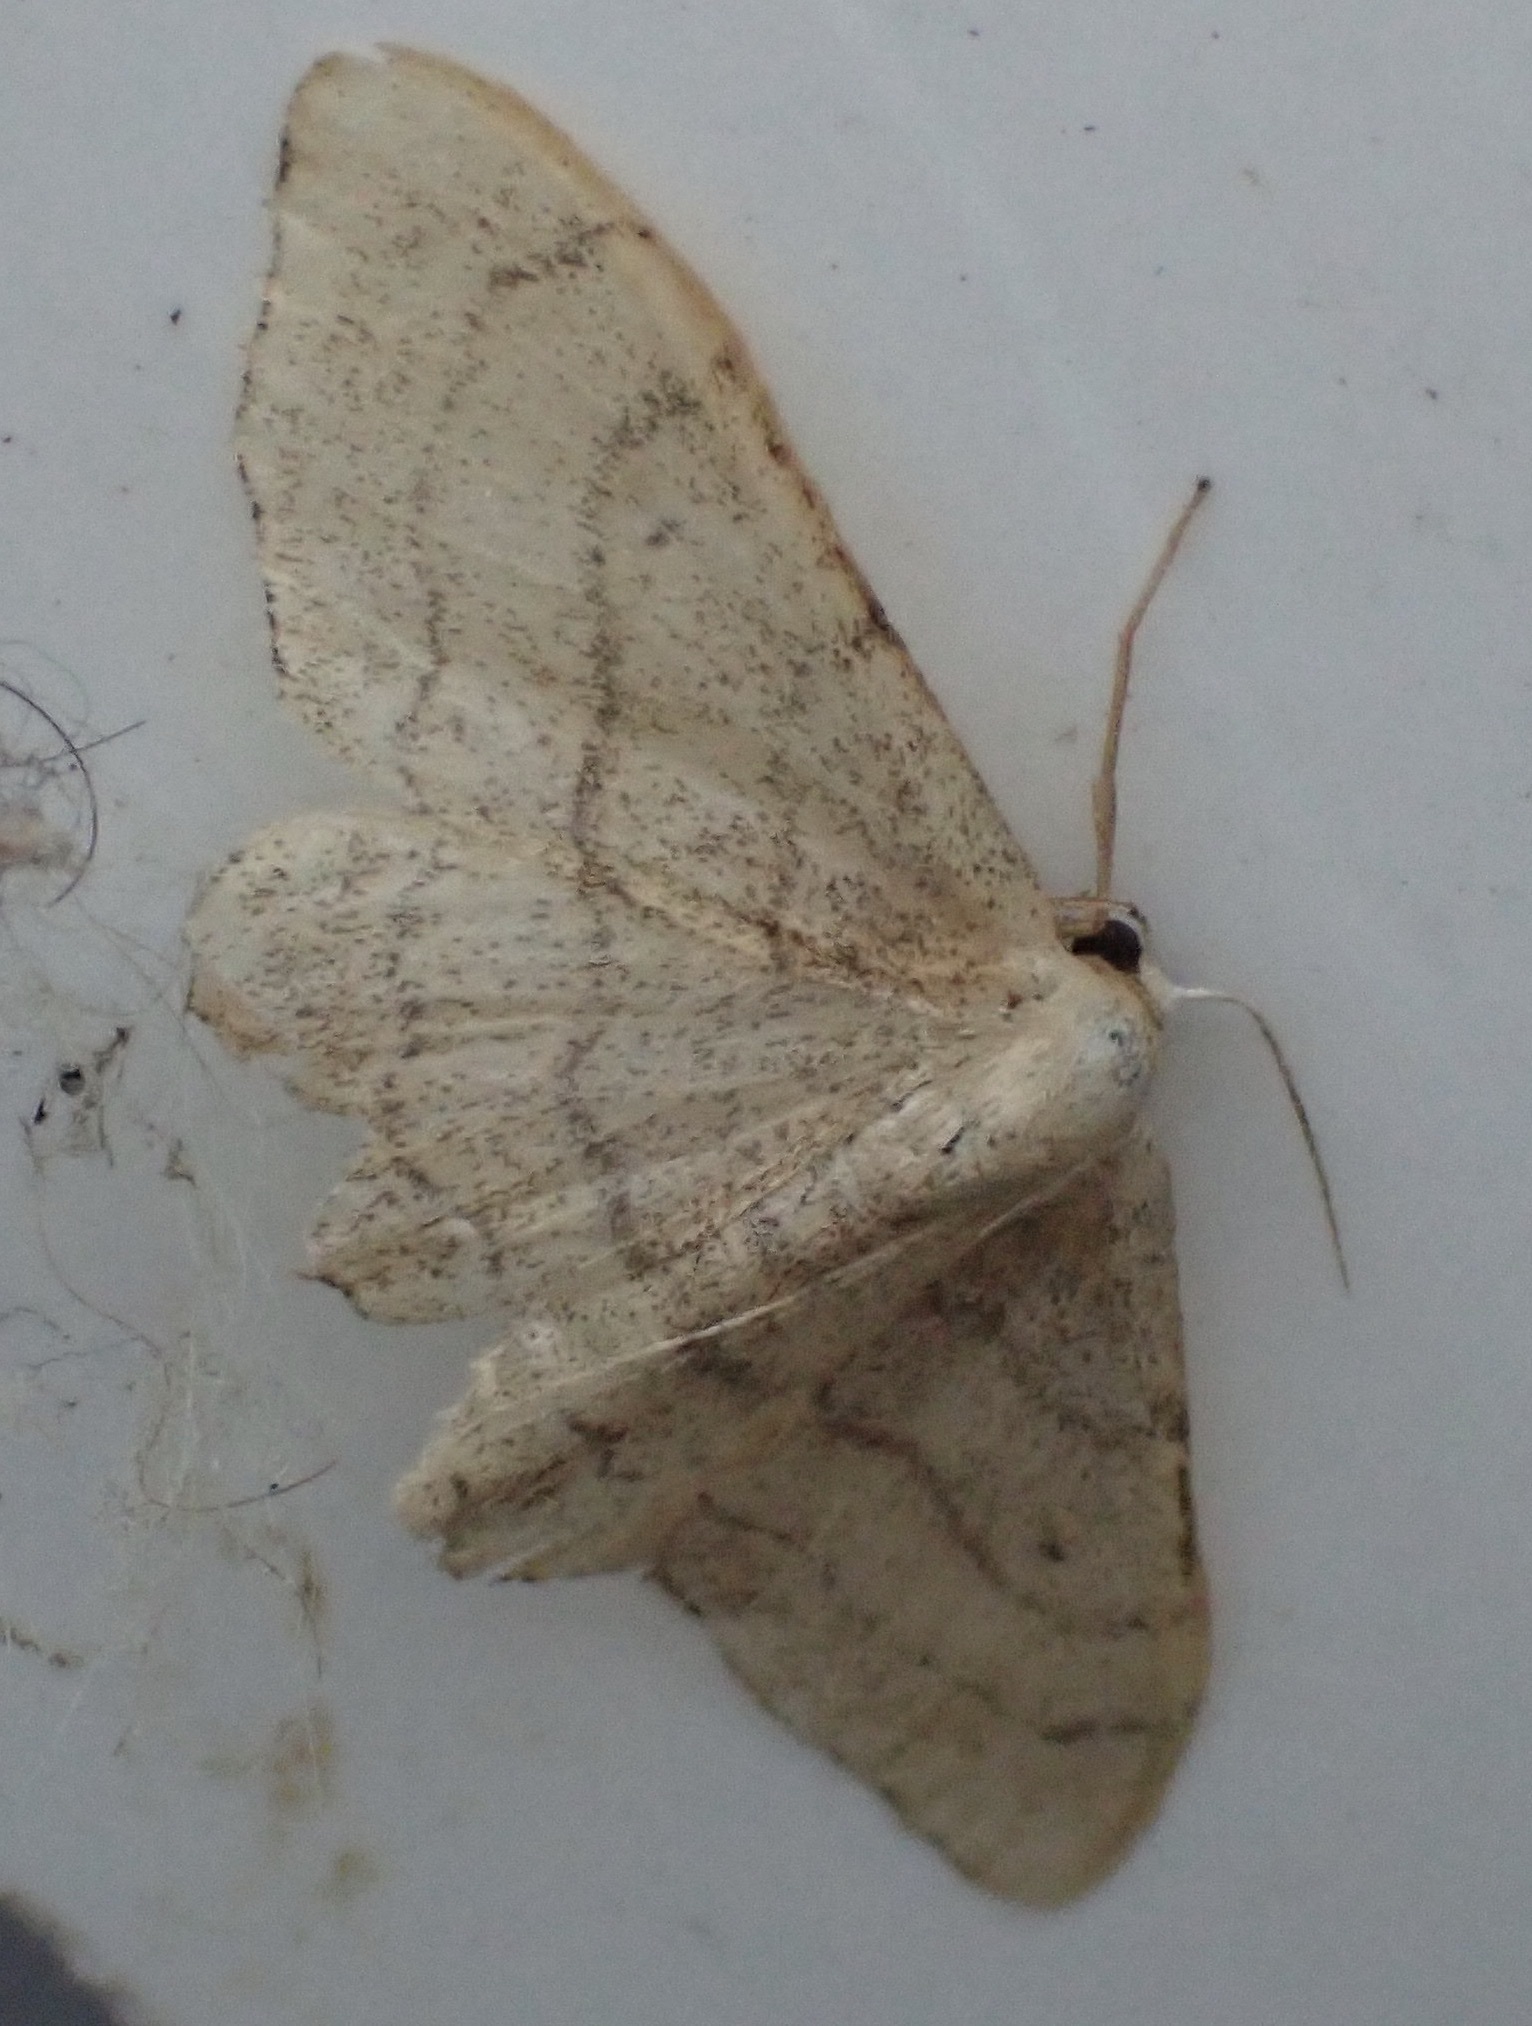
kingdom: Animalia
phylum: Arthropoda
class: Insecta
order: Lepidoptera
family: Geometridae
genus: Idaea
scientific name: Idaea aversata
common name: Riband wave
